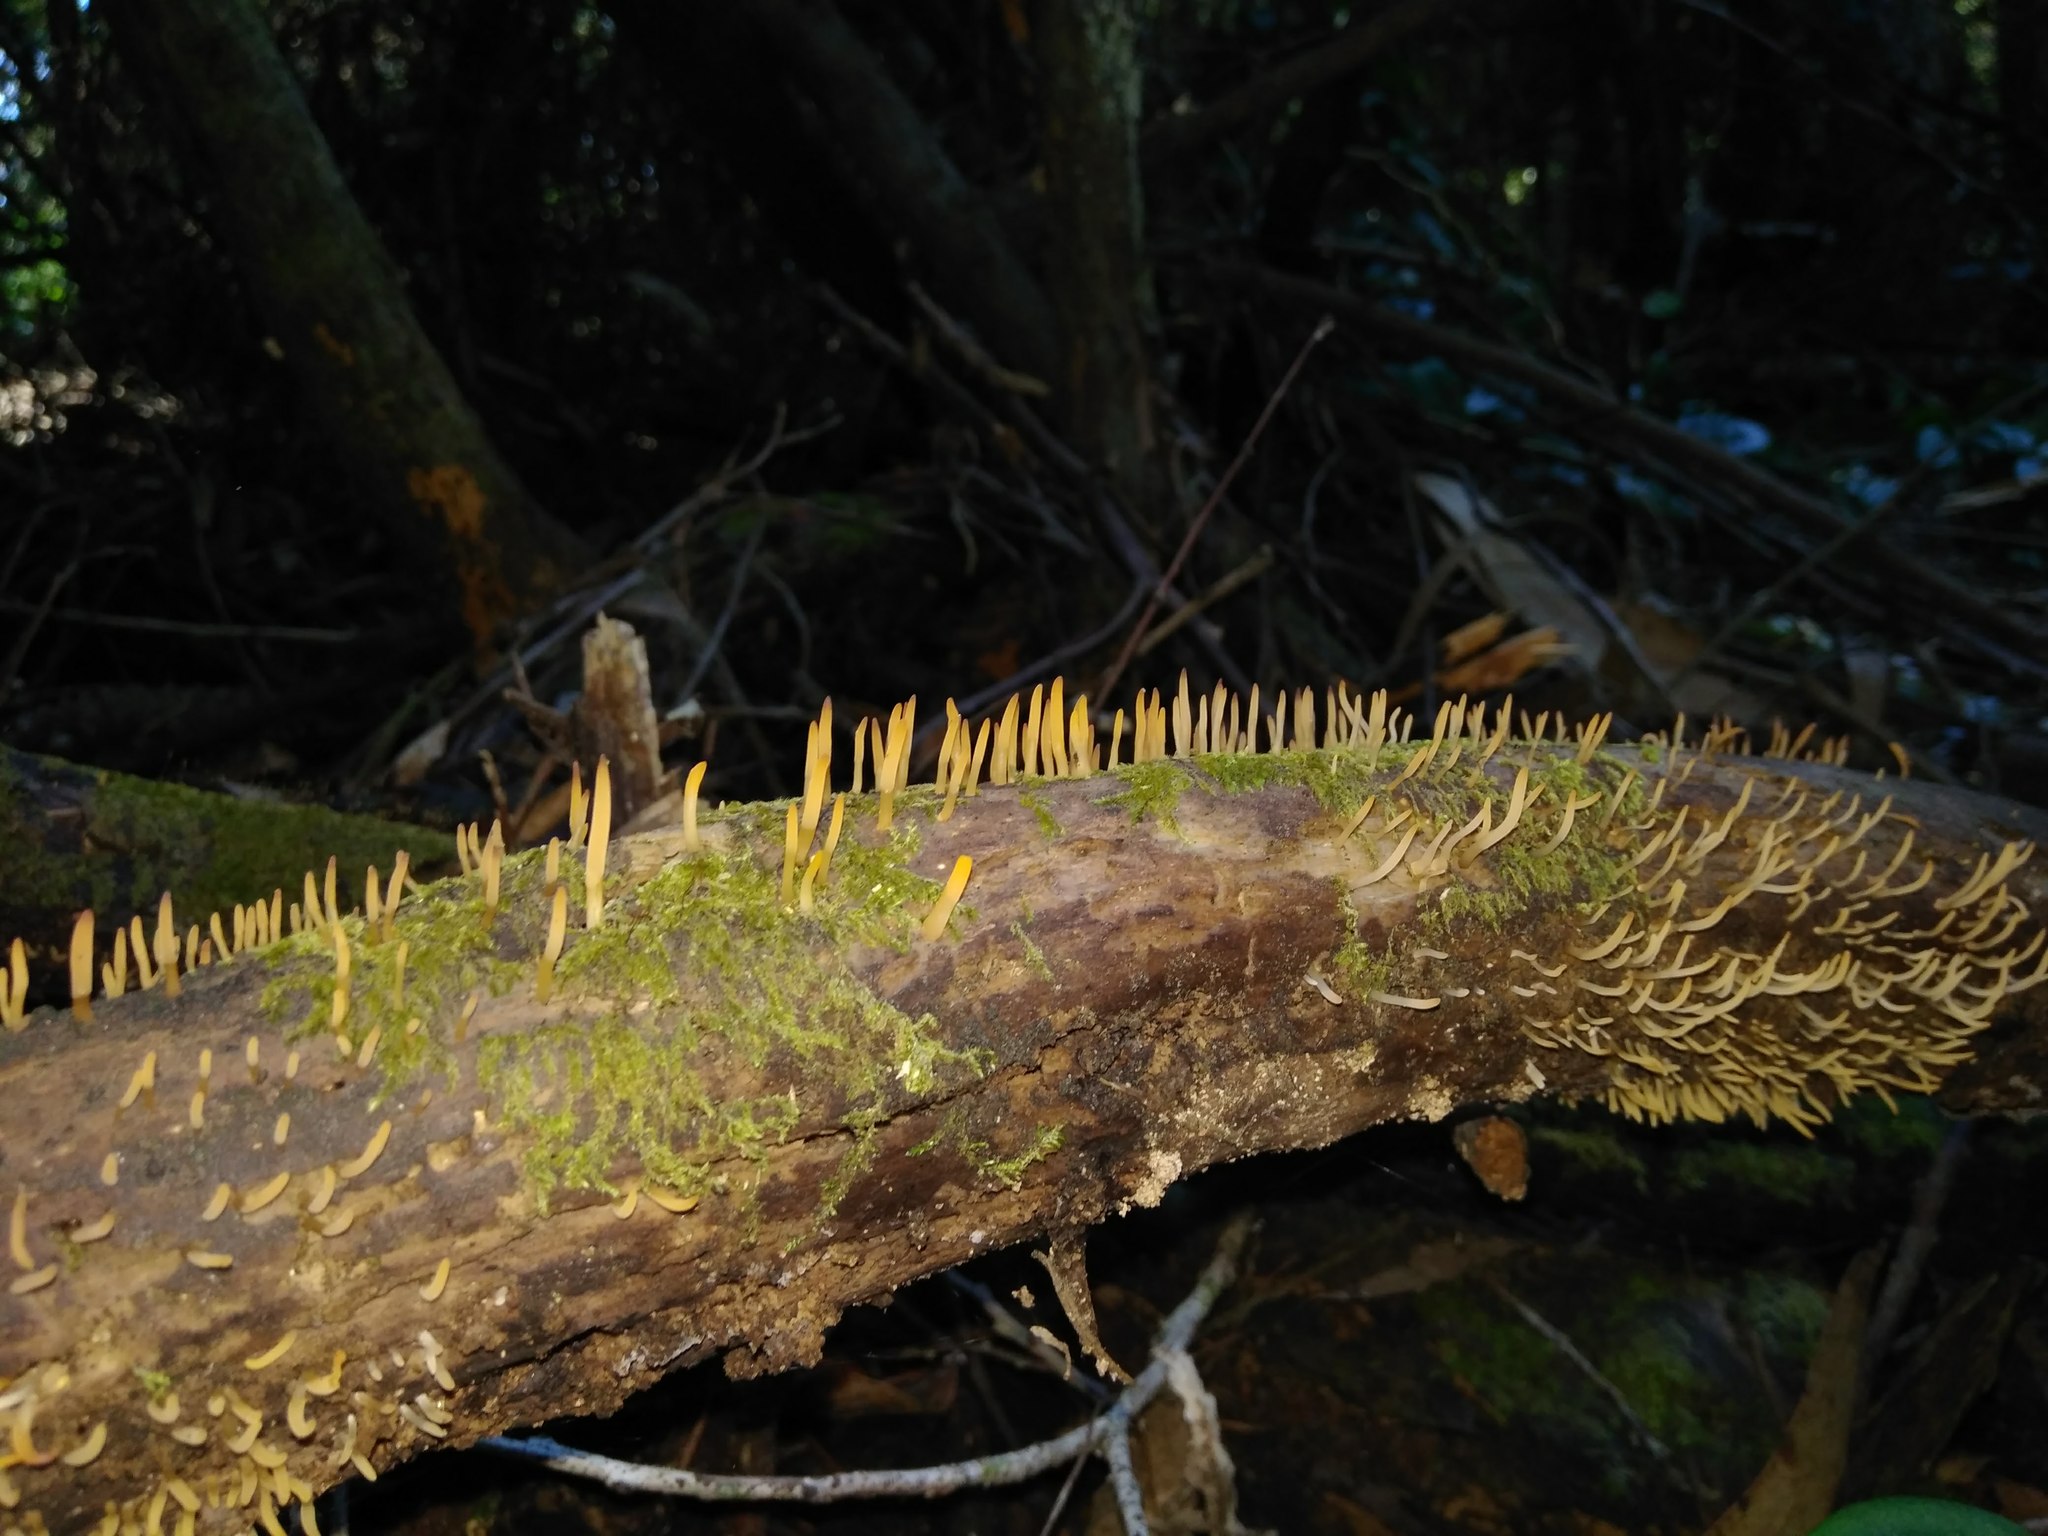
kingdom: Fungi
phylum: Basidiomycota
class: Dacrymycetes
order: Dacrymycetales
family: Dacrymycetaceae
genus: Calocera
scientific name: Calocera cornea
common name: Small stagshorn
